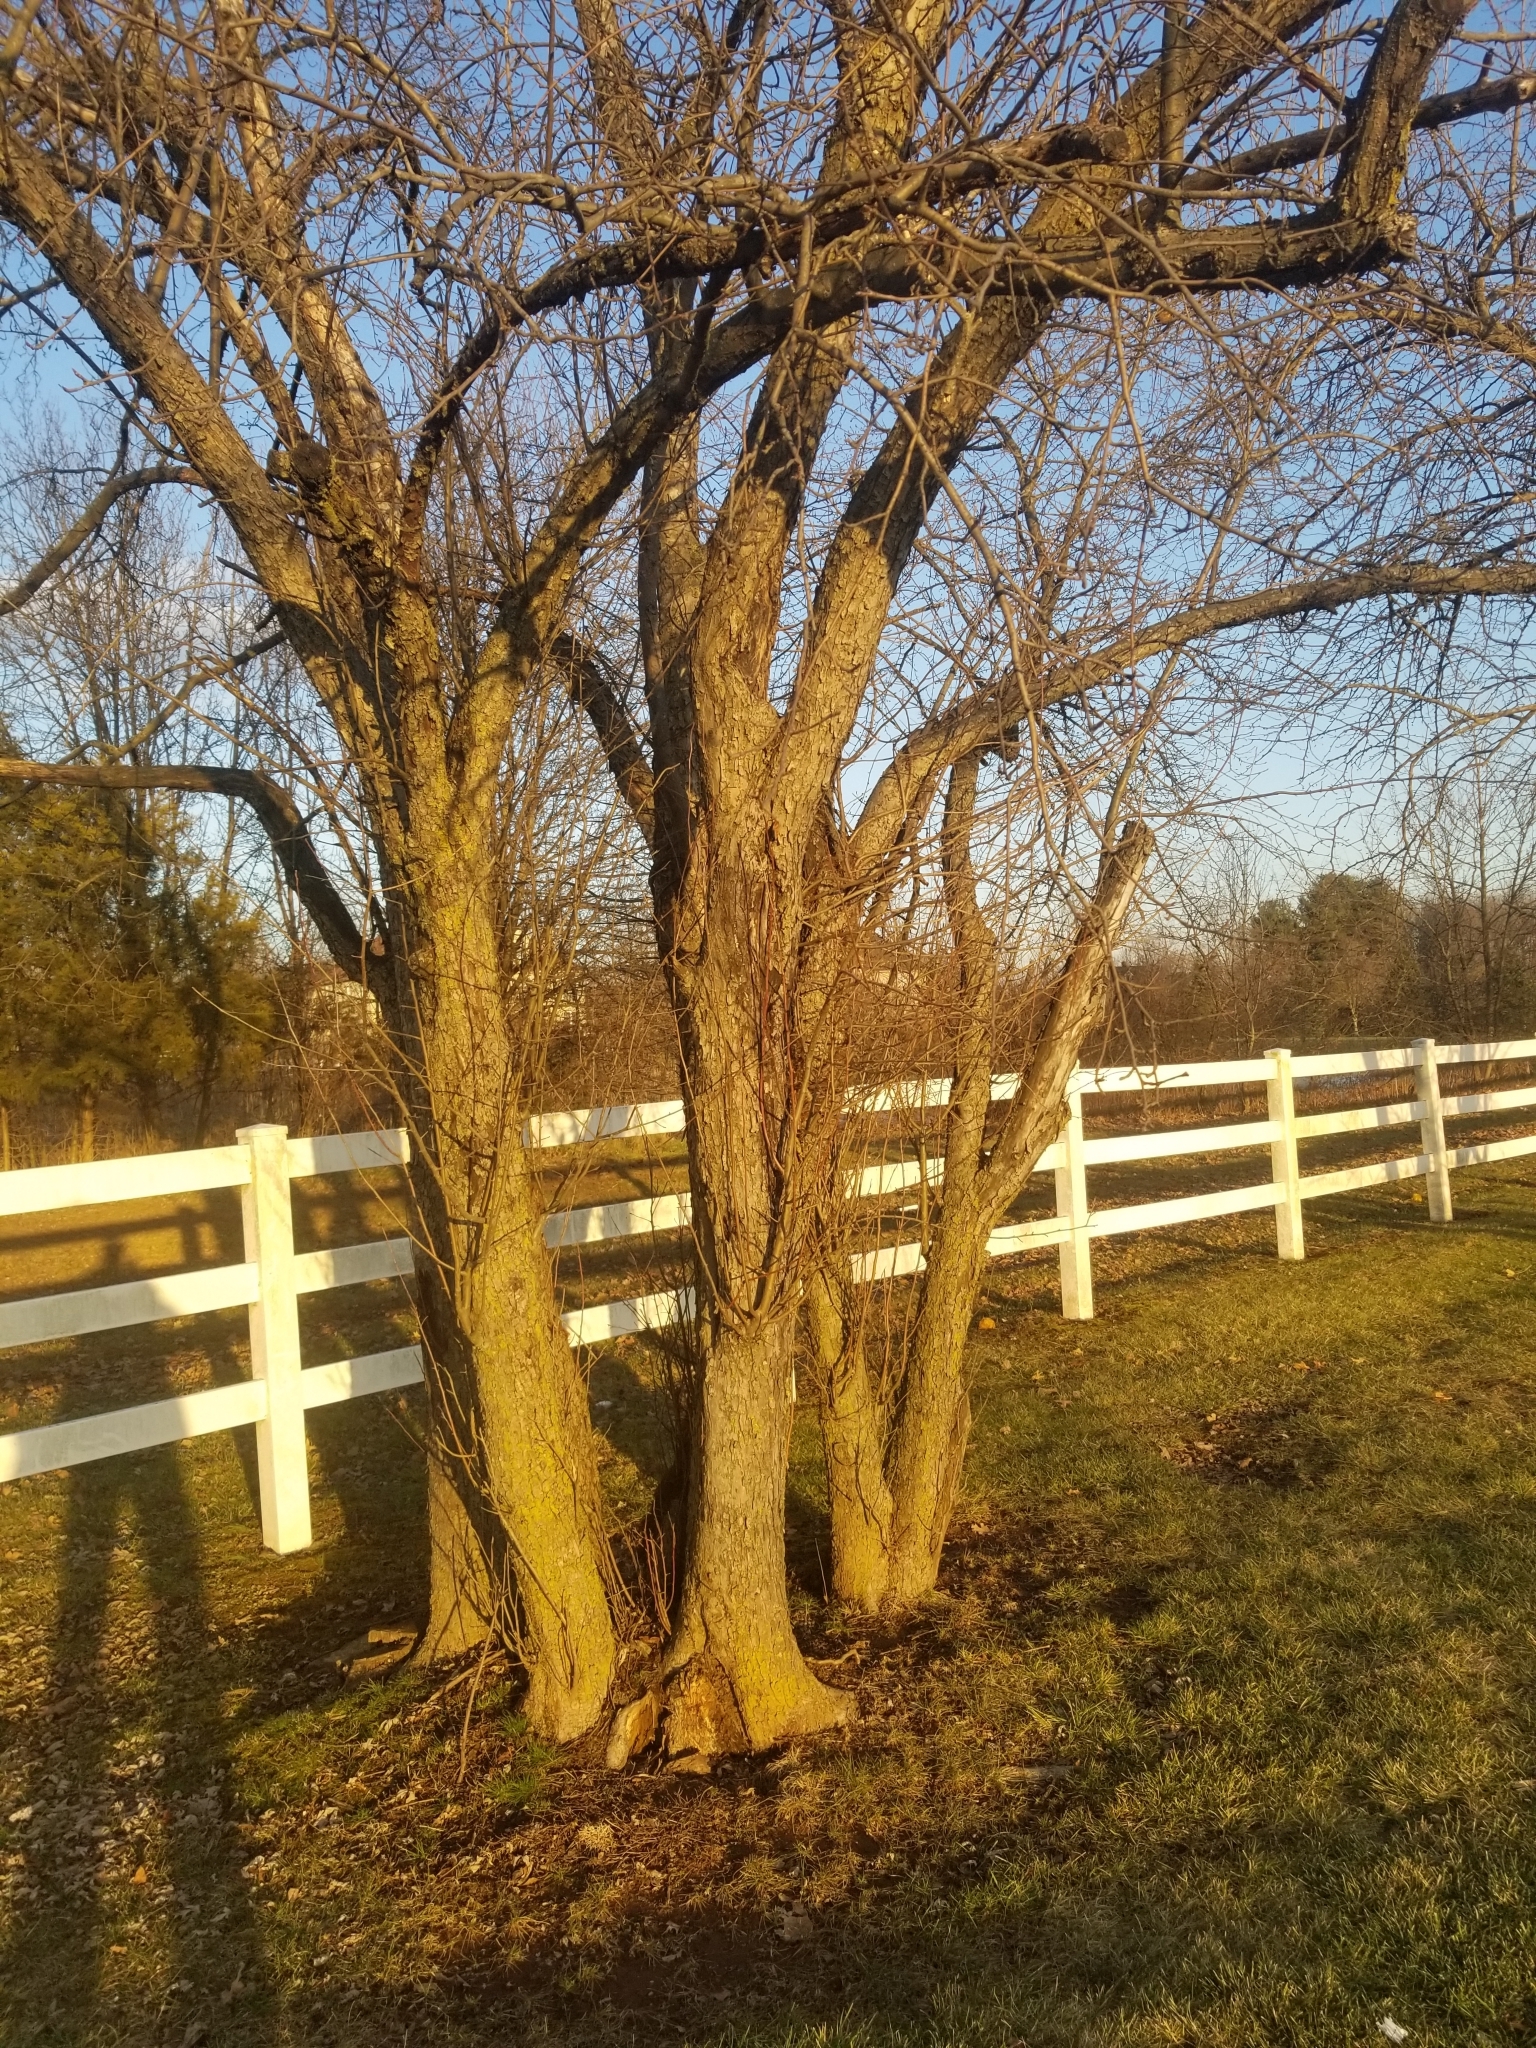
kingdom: Plantae
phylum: Tracheophyta
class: Magnoliopsida
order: Rosales
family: Moraceae
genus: Maclura
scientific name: Maclura pomifera
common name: Osage-orange
